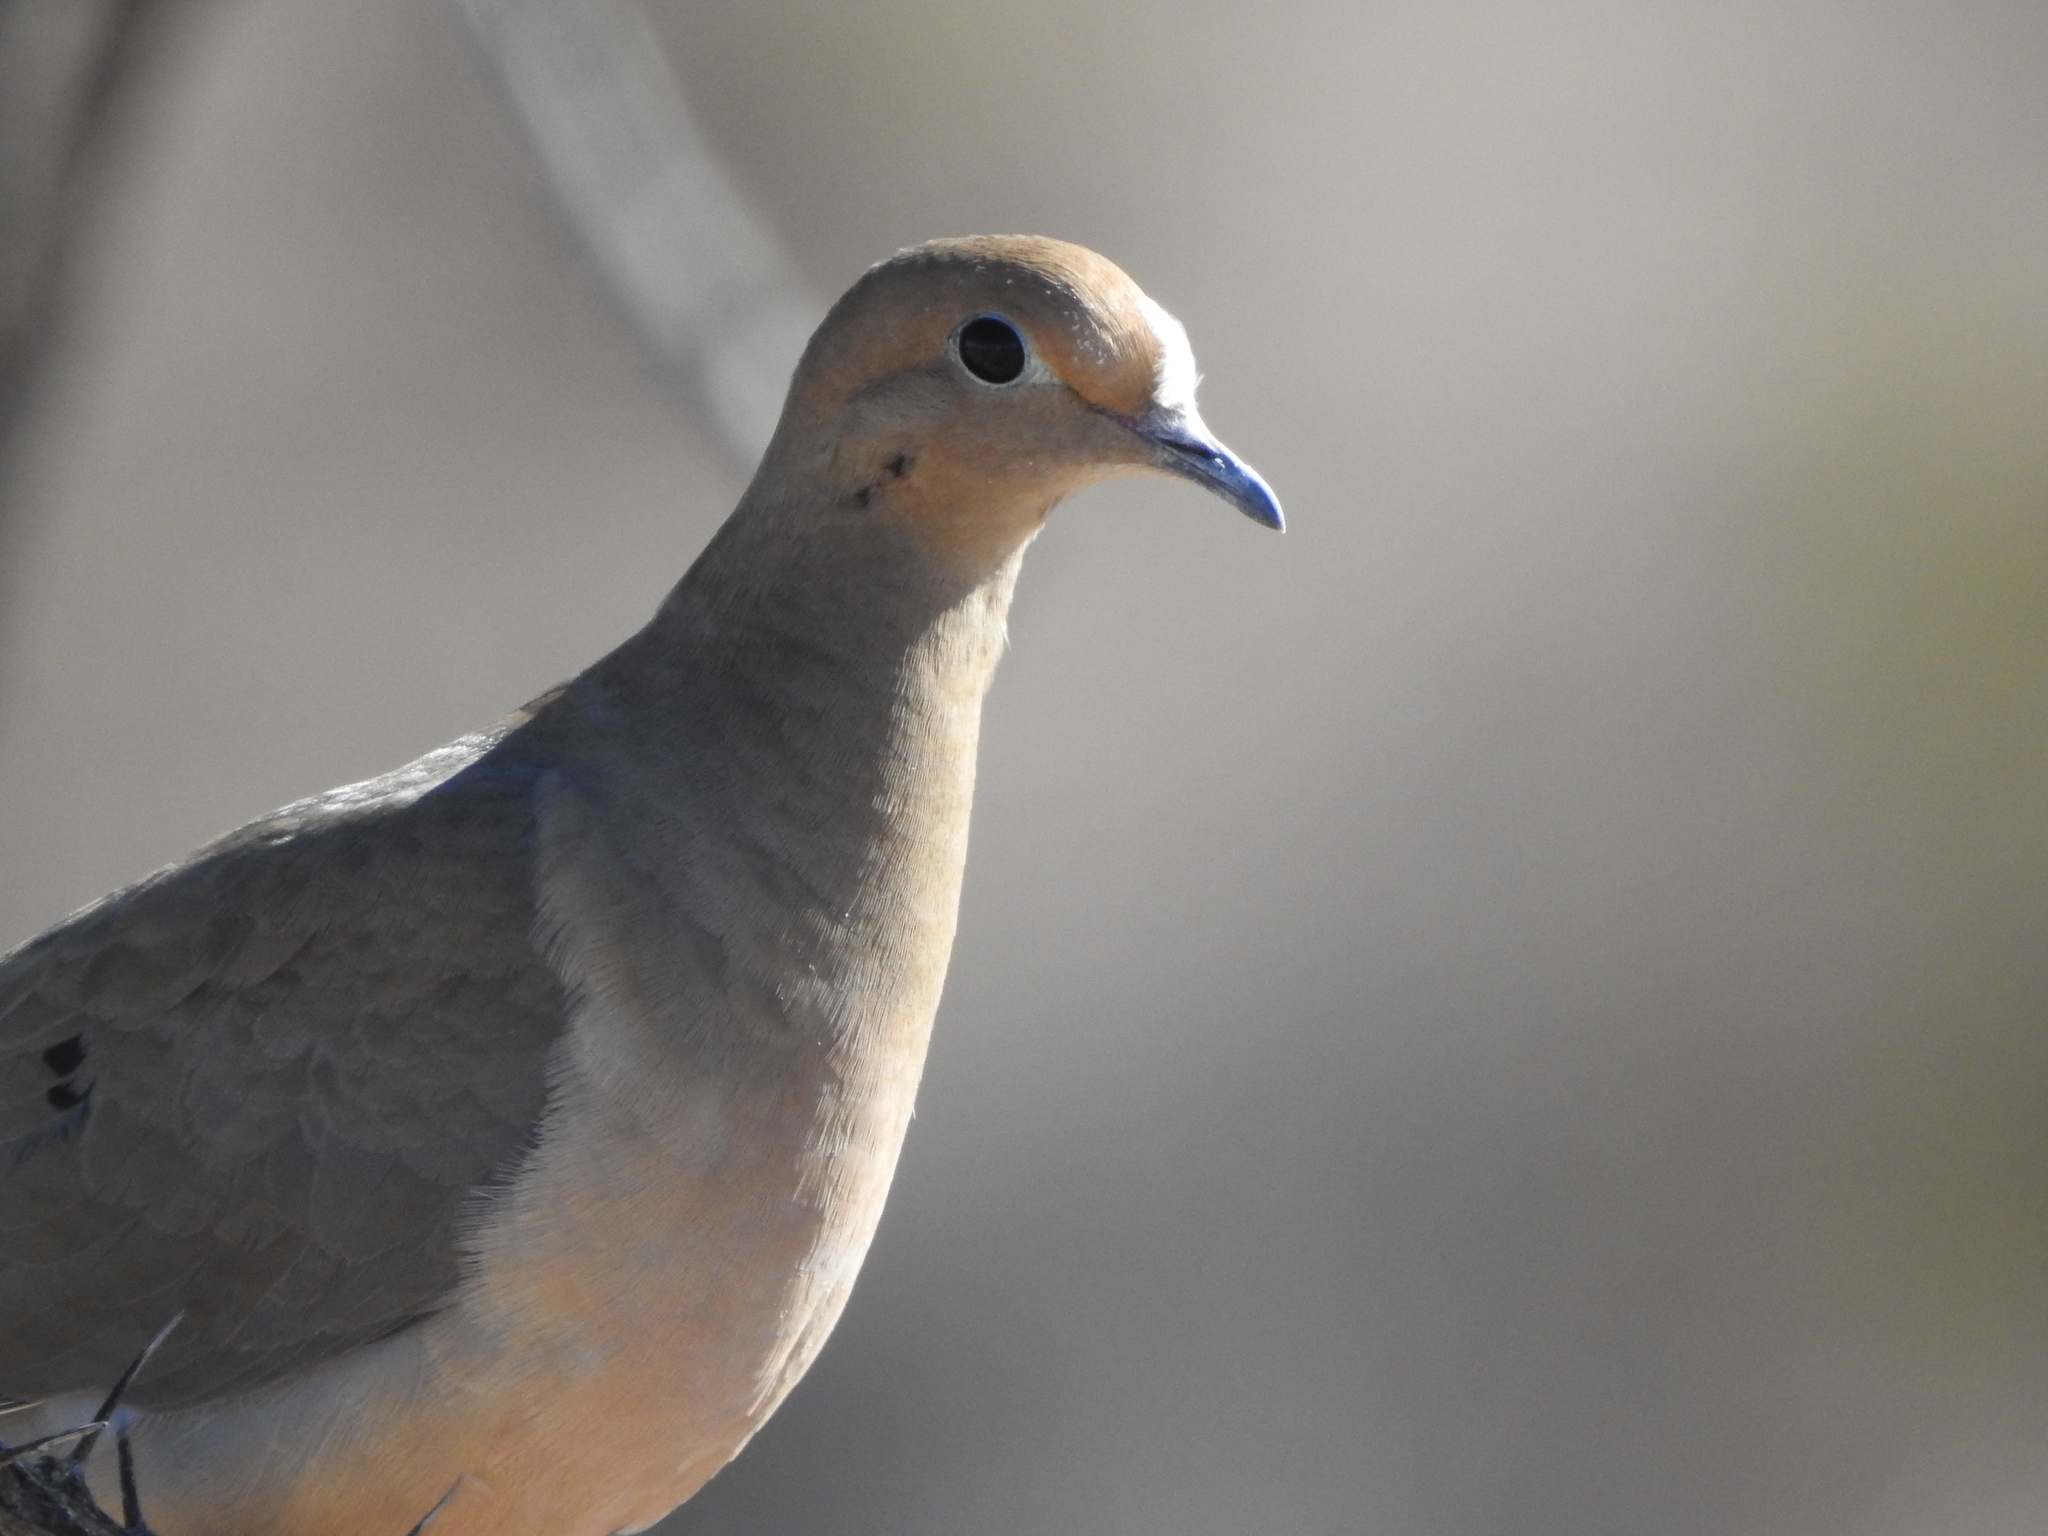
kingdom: Animalia
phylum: Chordata
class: Aves
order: Columbiformes
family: Columbidae
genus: Zenaida
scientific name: Zenaida macroura
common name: Mourning dove
